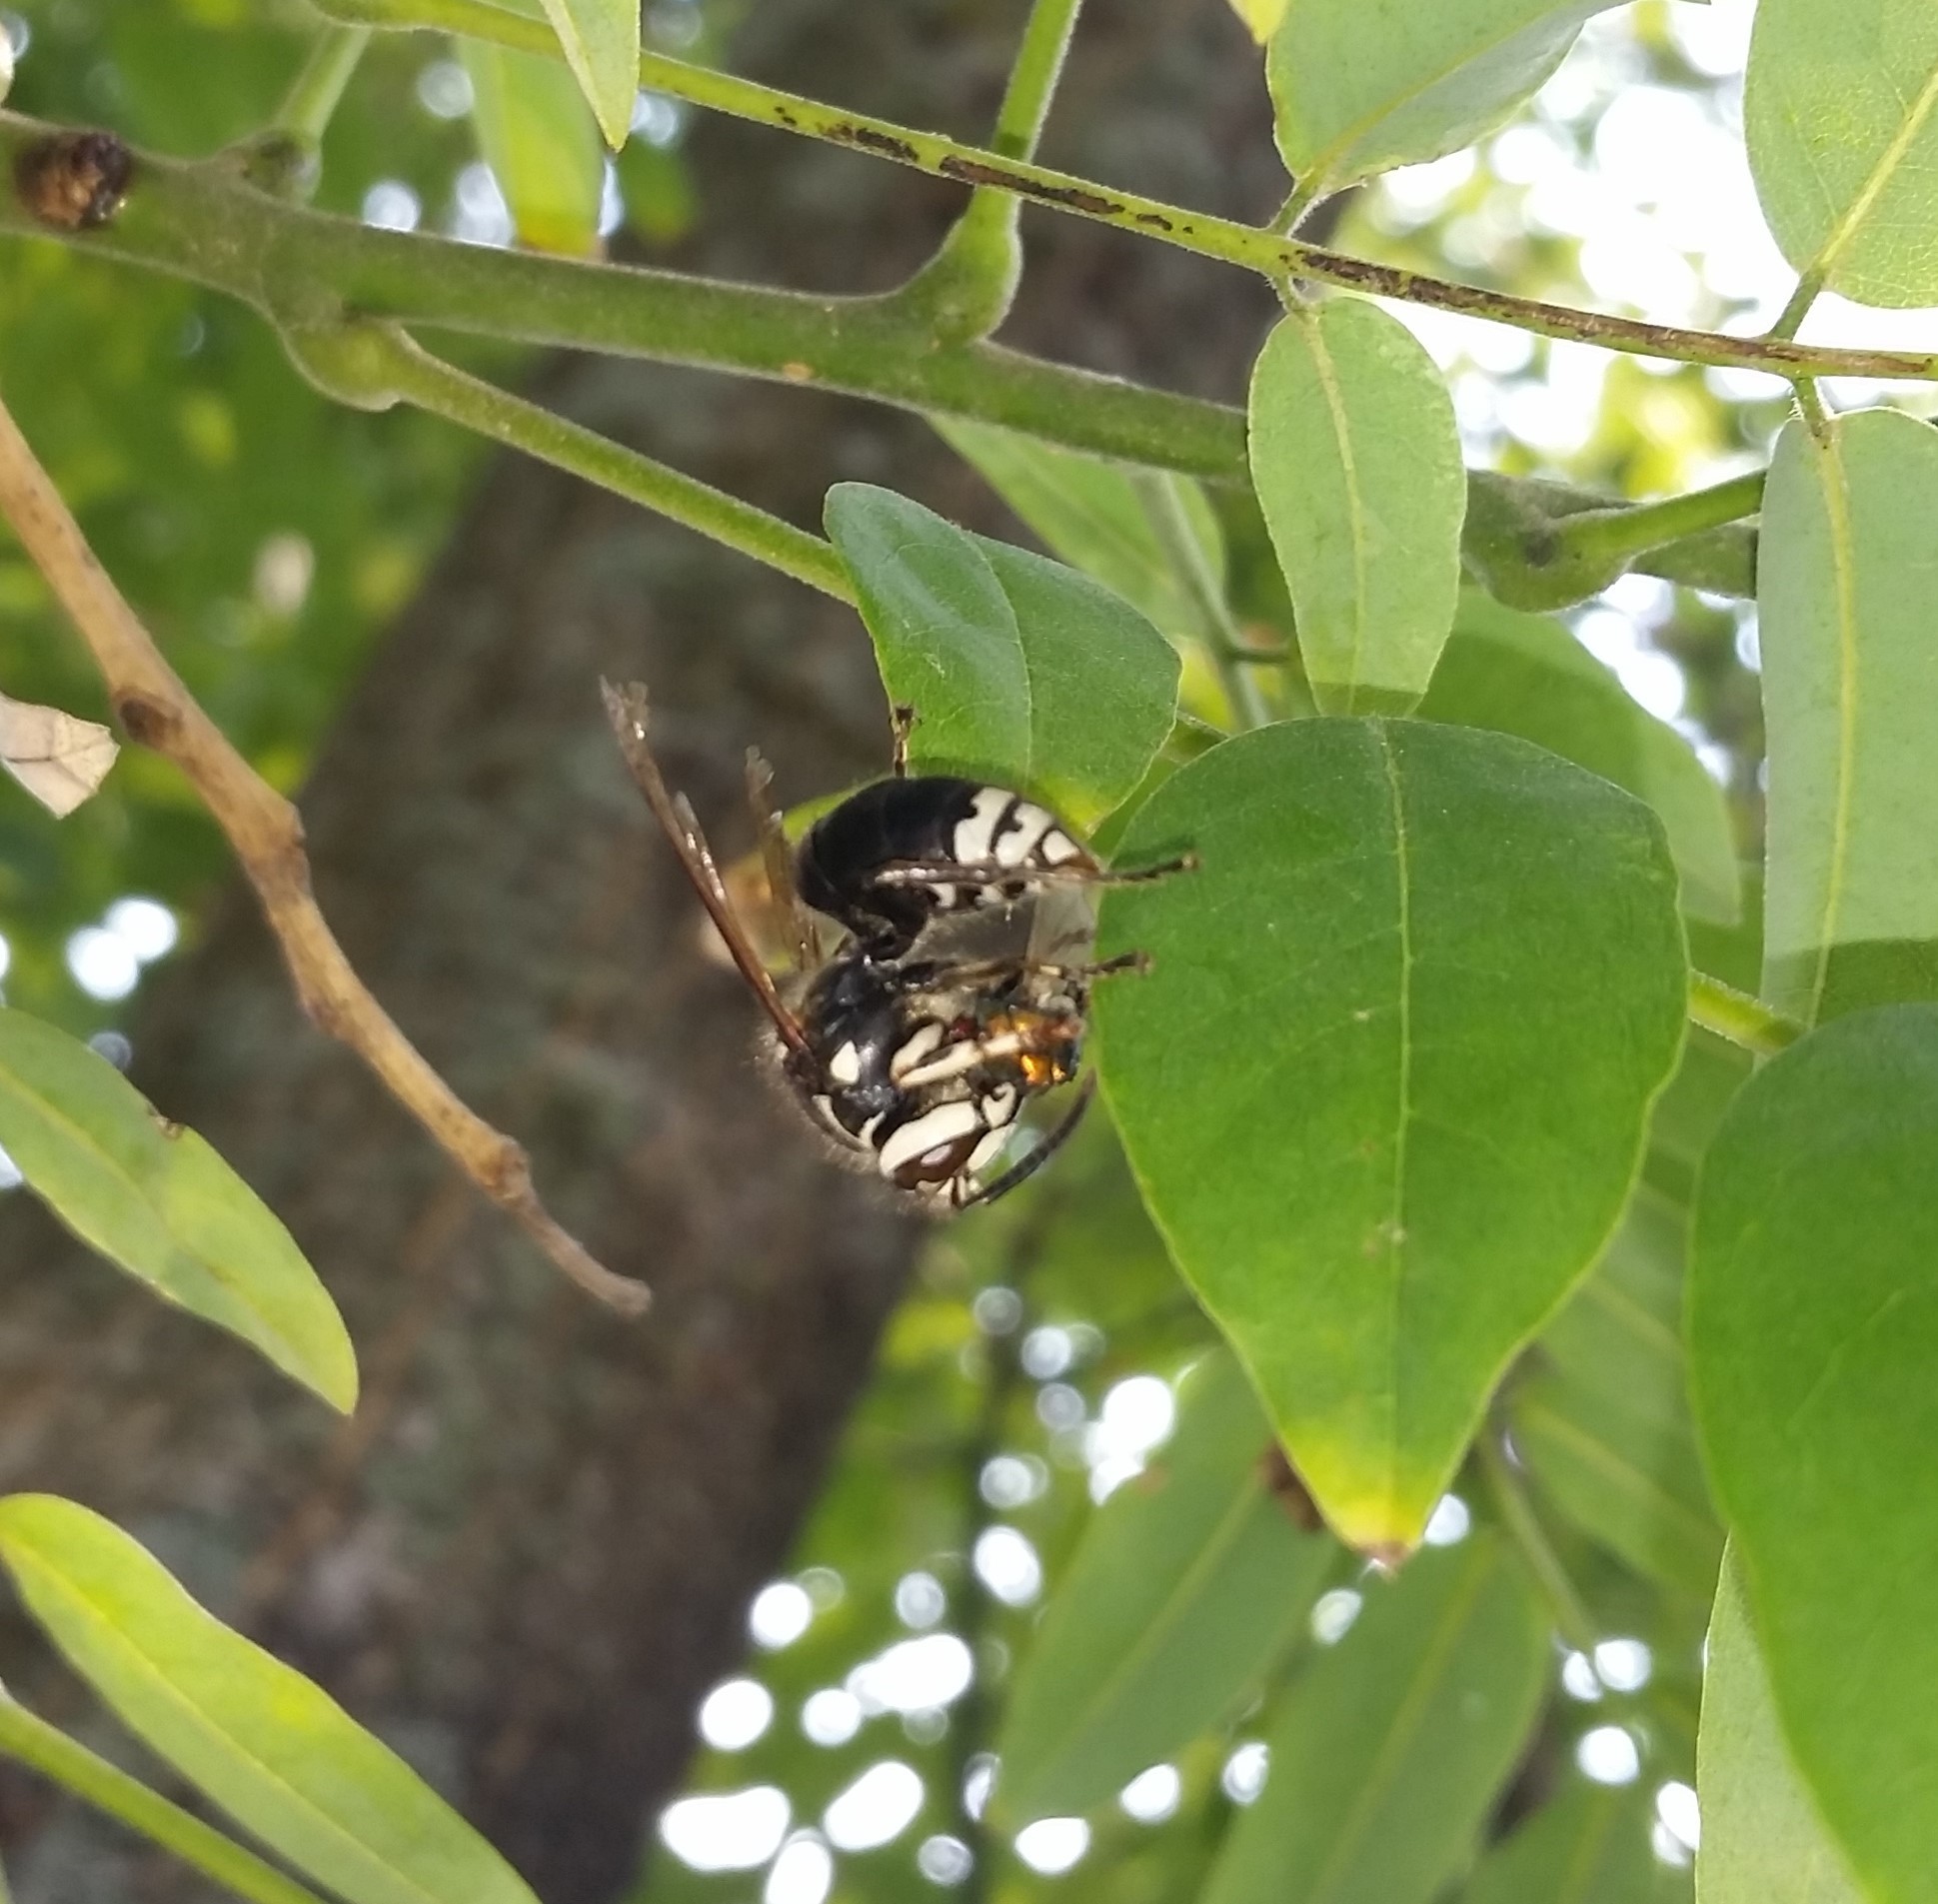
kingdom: Animalia
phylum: Arthropoda
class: Insecta
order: Hymenoptera
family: Vespidae
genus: Dolichovespula
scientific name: Dolichovespula maculata
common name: Bald-faced hornet
